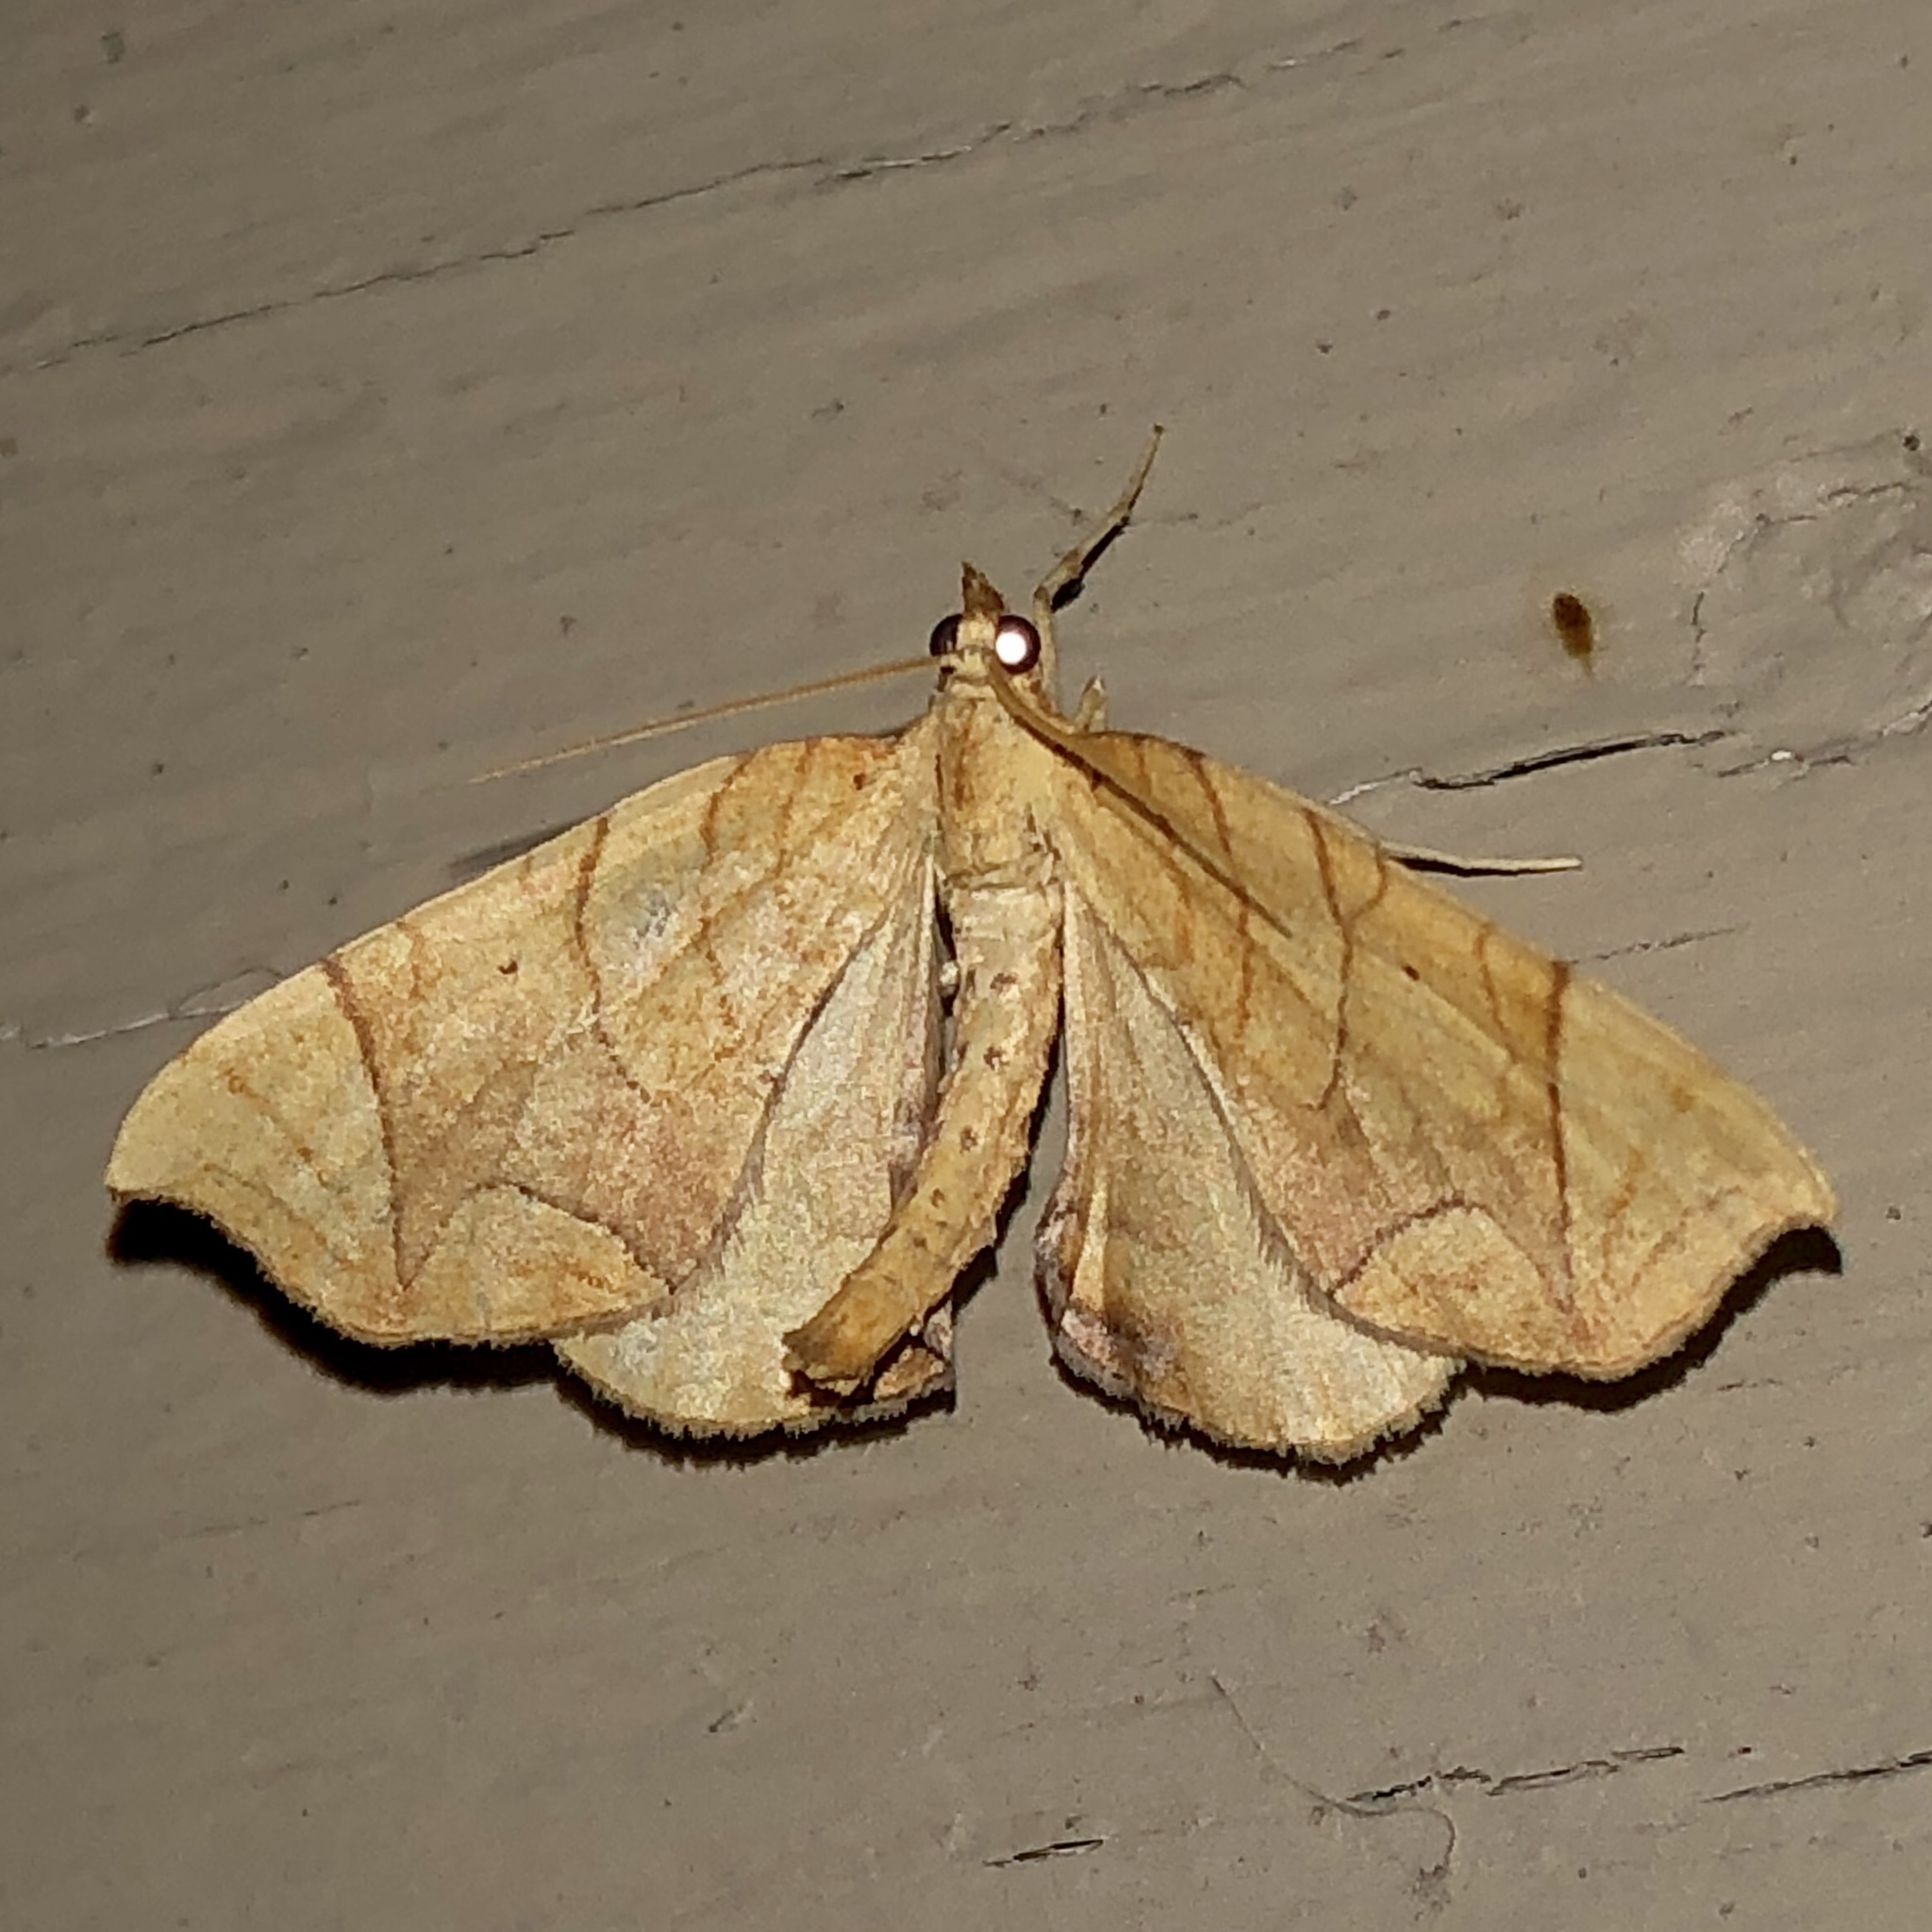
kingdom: Animalia
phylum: Arthropoda
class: Insecta
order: Lepidoptera
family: Geometridae
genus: Eulithis
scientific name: Eulithis
